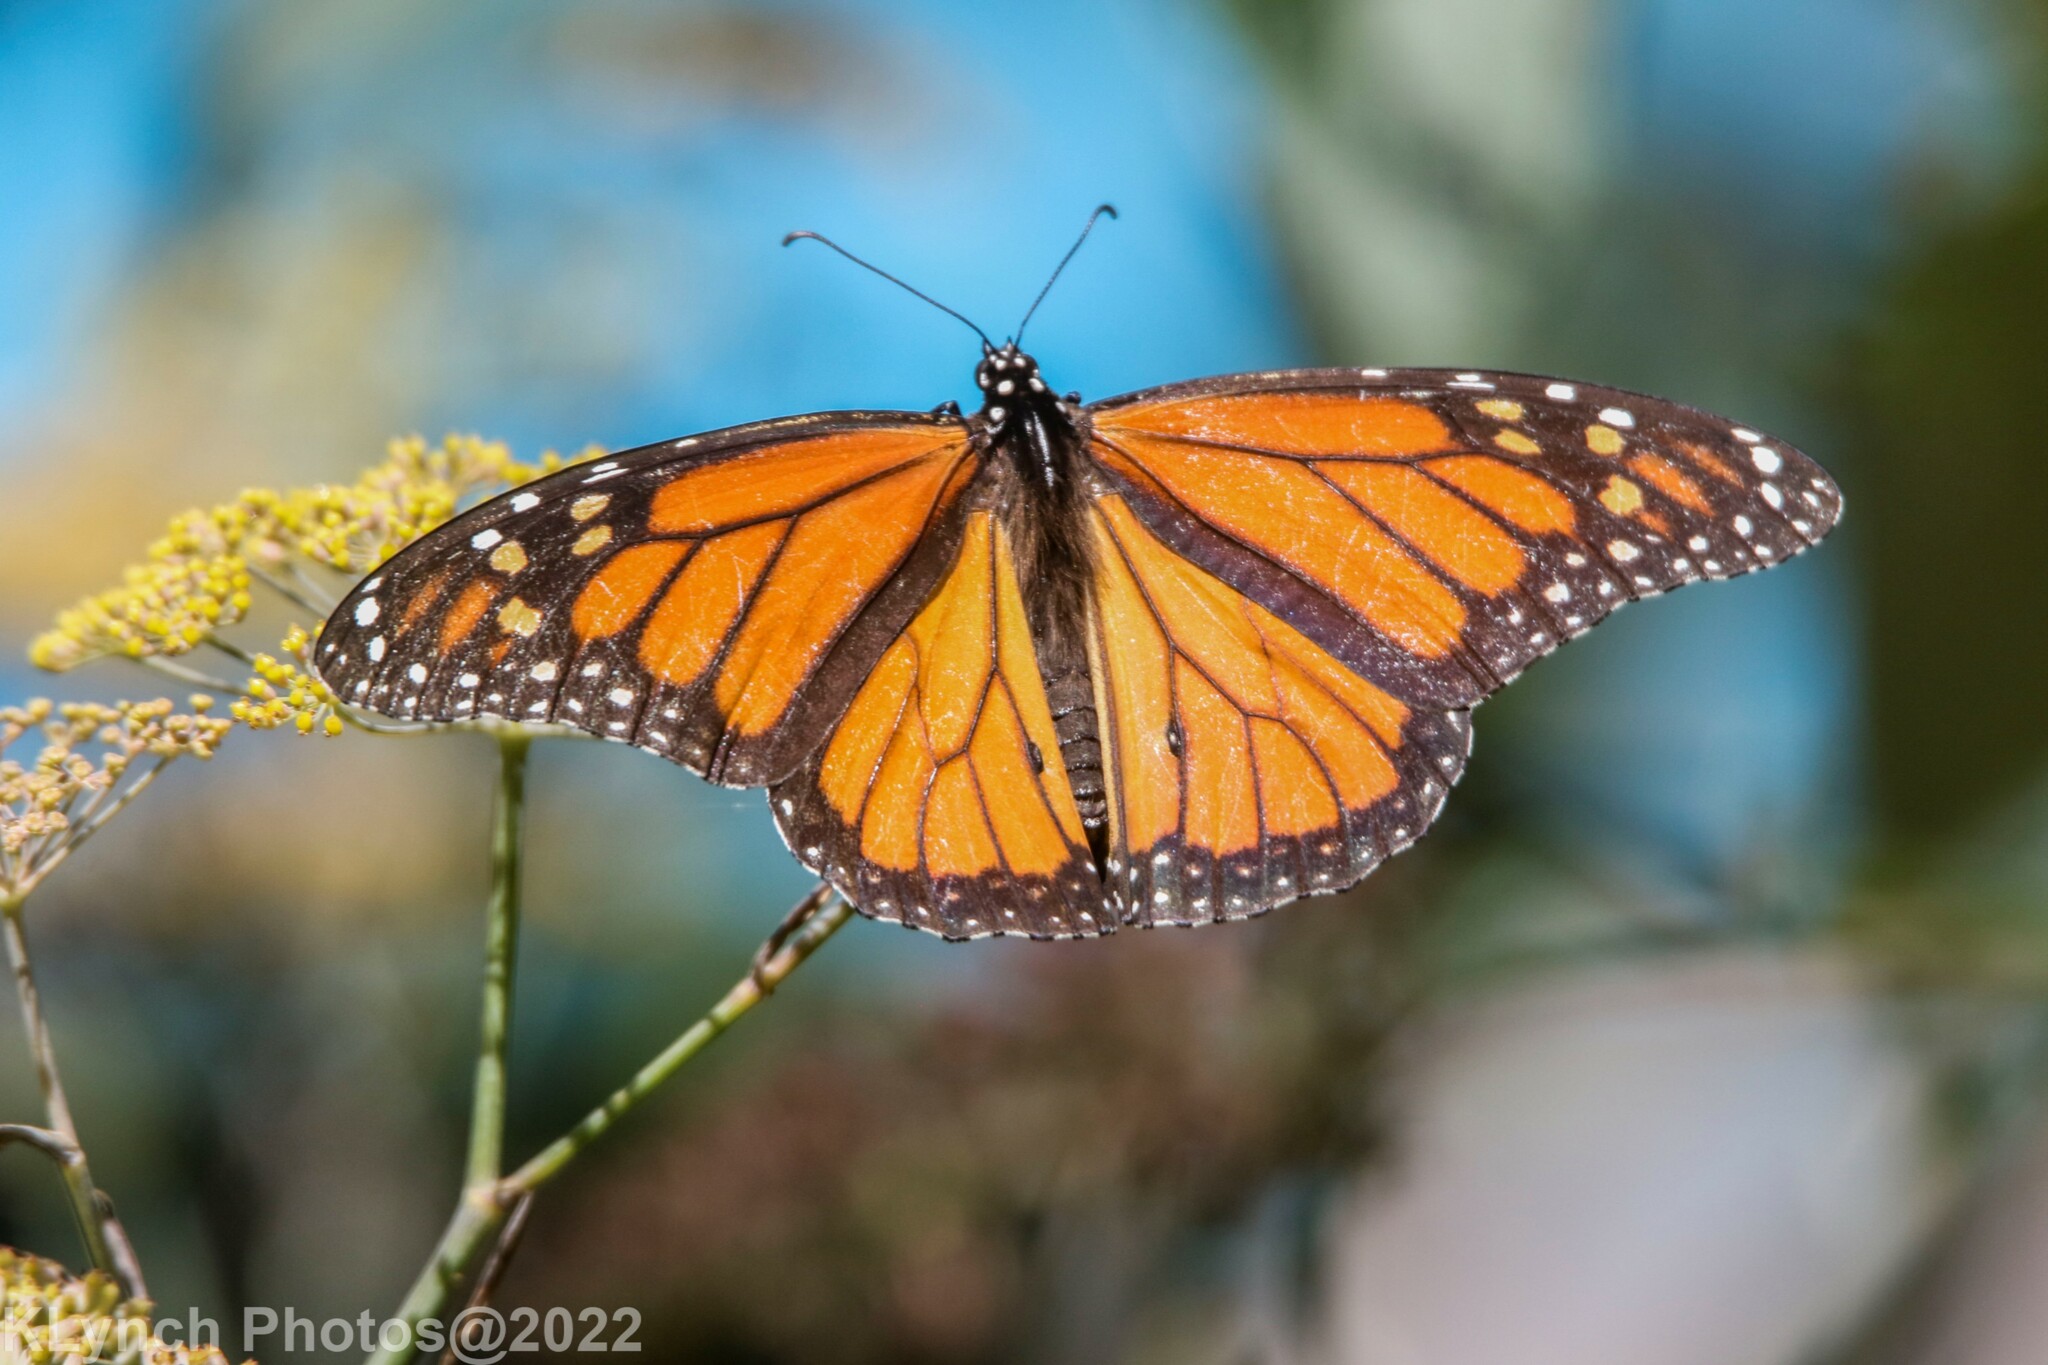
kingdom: Animalia
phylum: Arthropoda
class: Insecta
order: Lepidoptera
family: Nymphalidae
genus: Danaus
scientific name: Danaus plexippus
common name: Monarch
